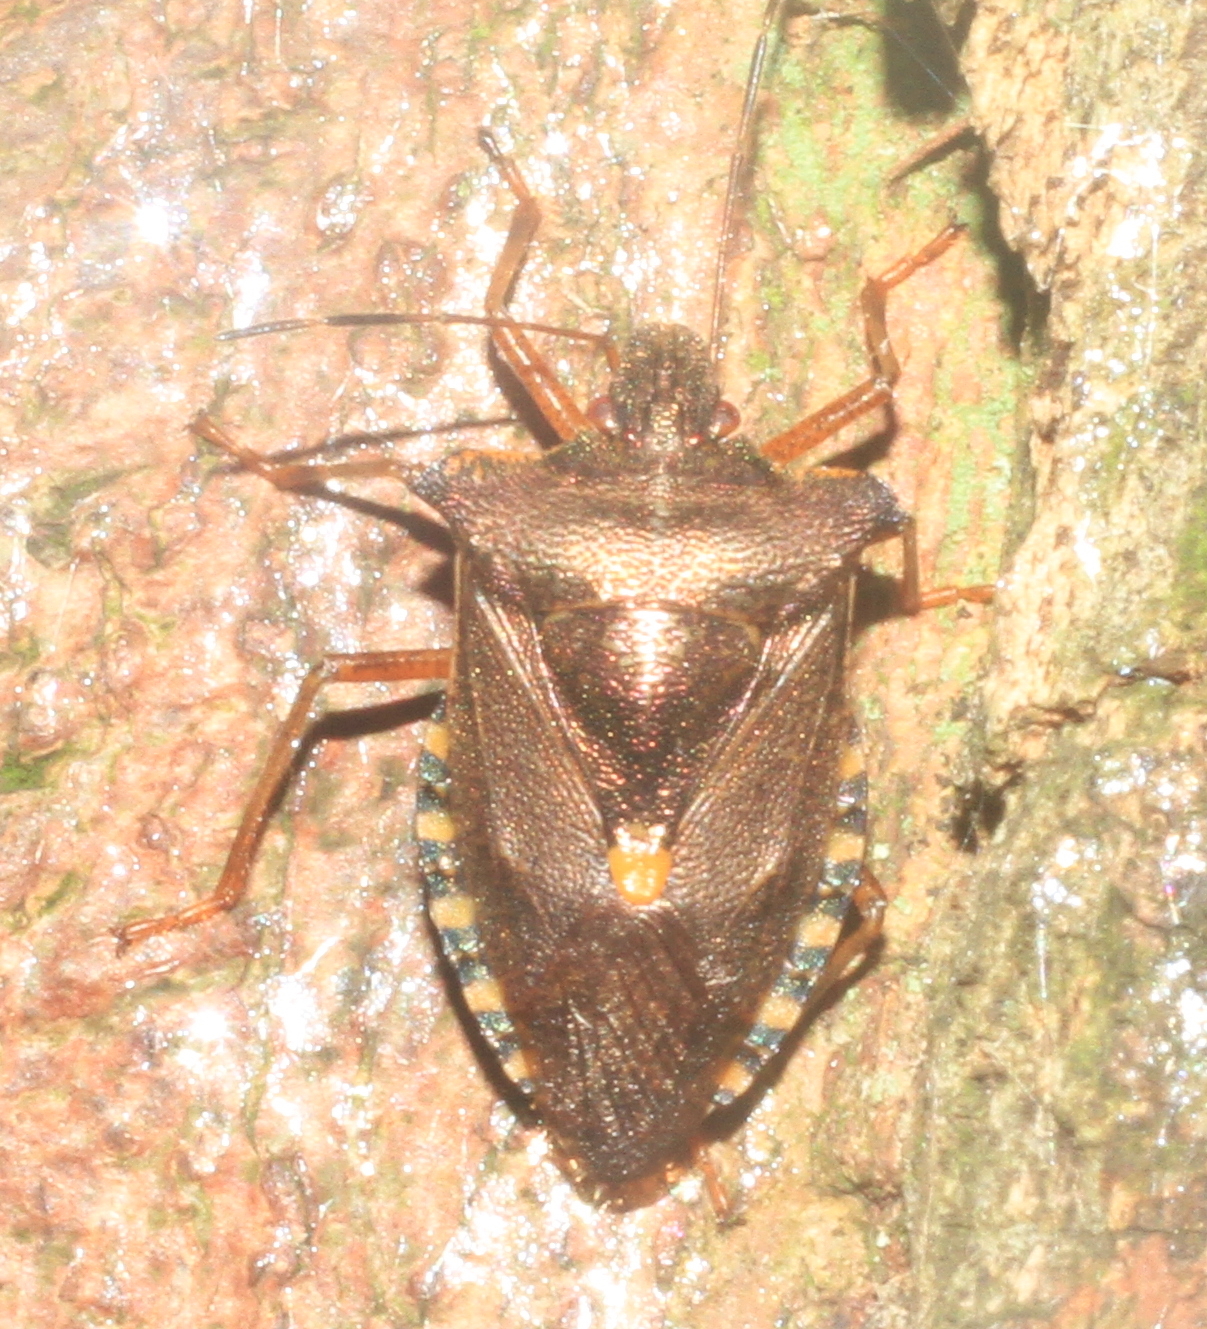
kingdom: Animalia
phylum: Arthropoda
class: Insecta
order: Hemiptera
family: Pentatomidae
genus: Pentatoma
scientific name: Pentatoma rufipes
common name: Forest bug
